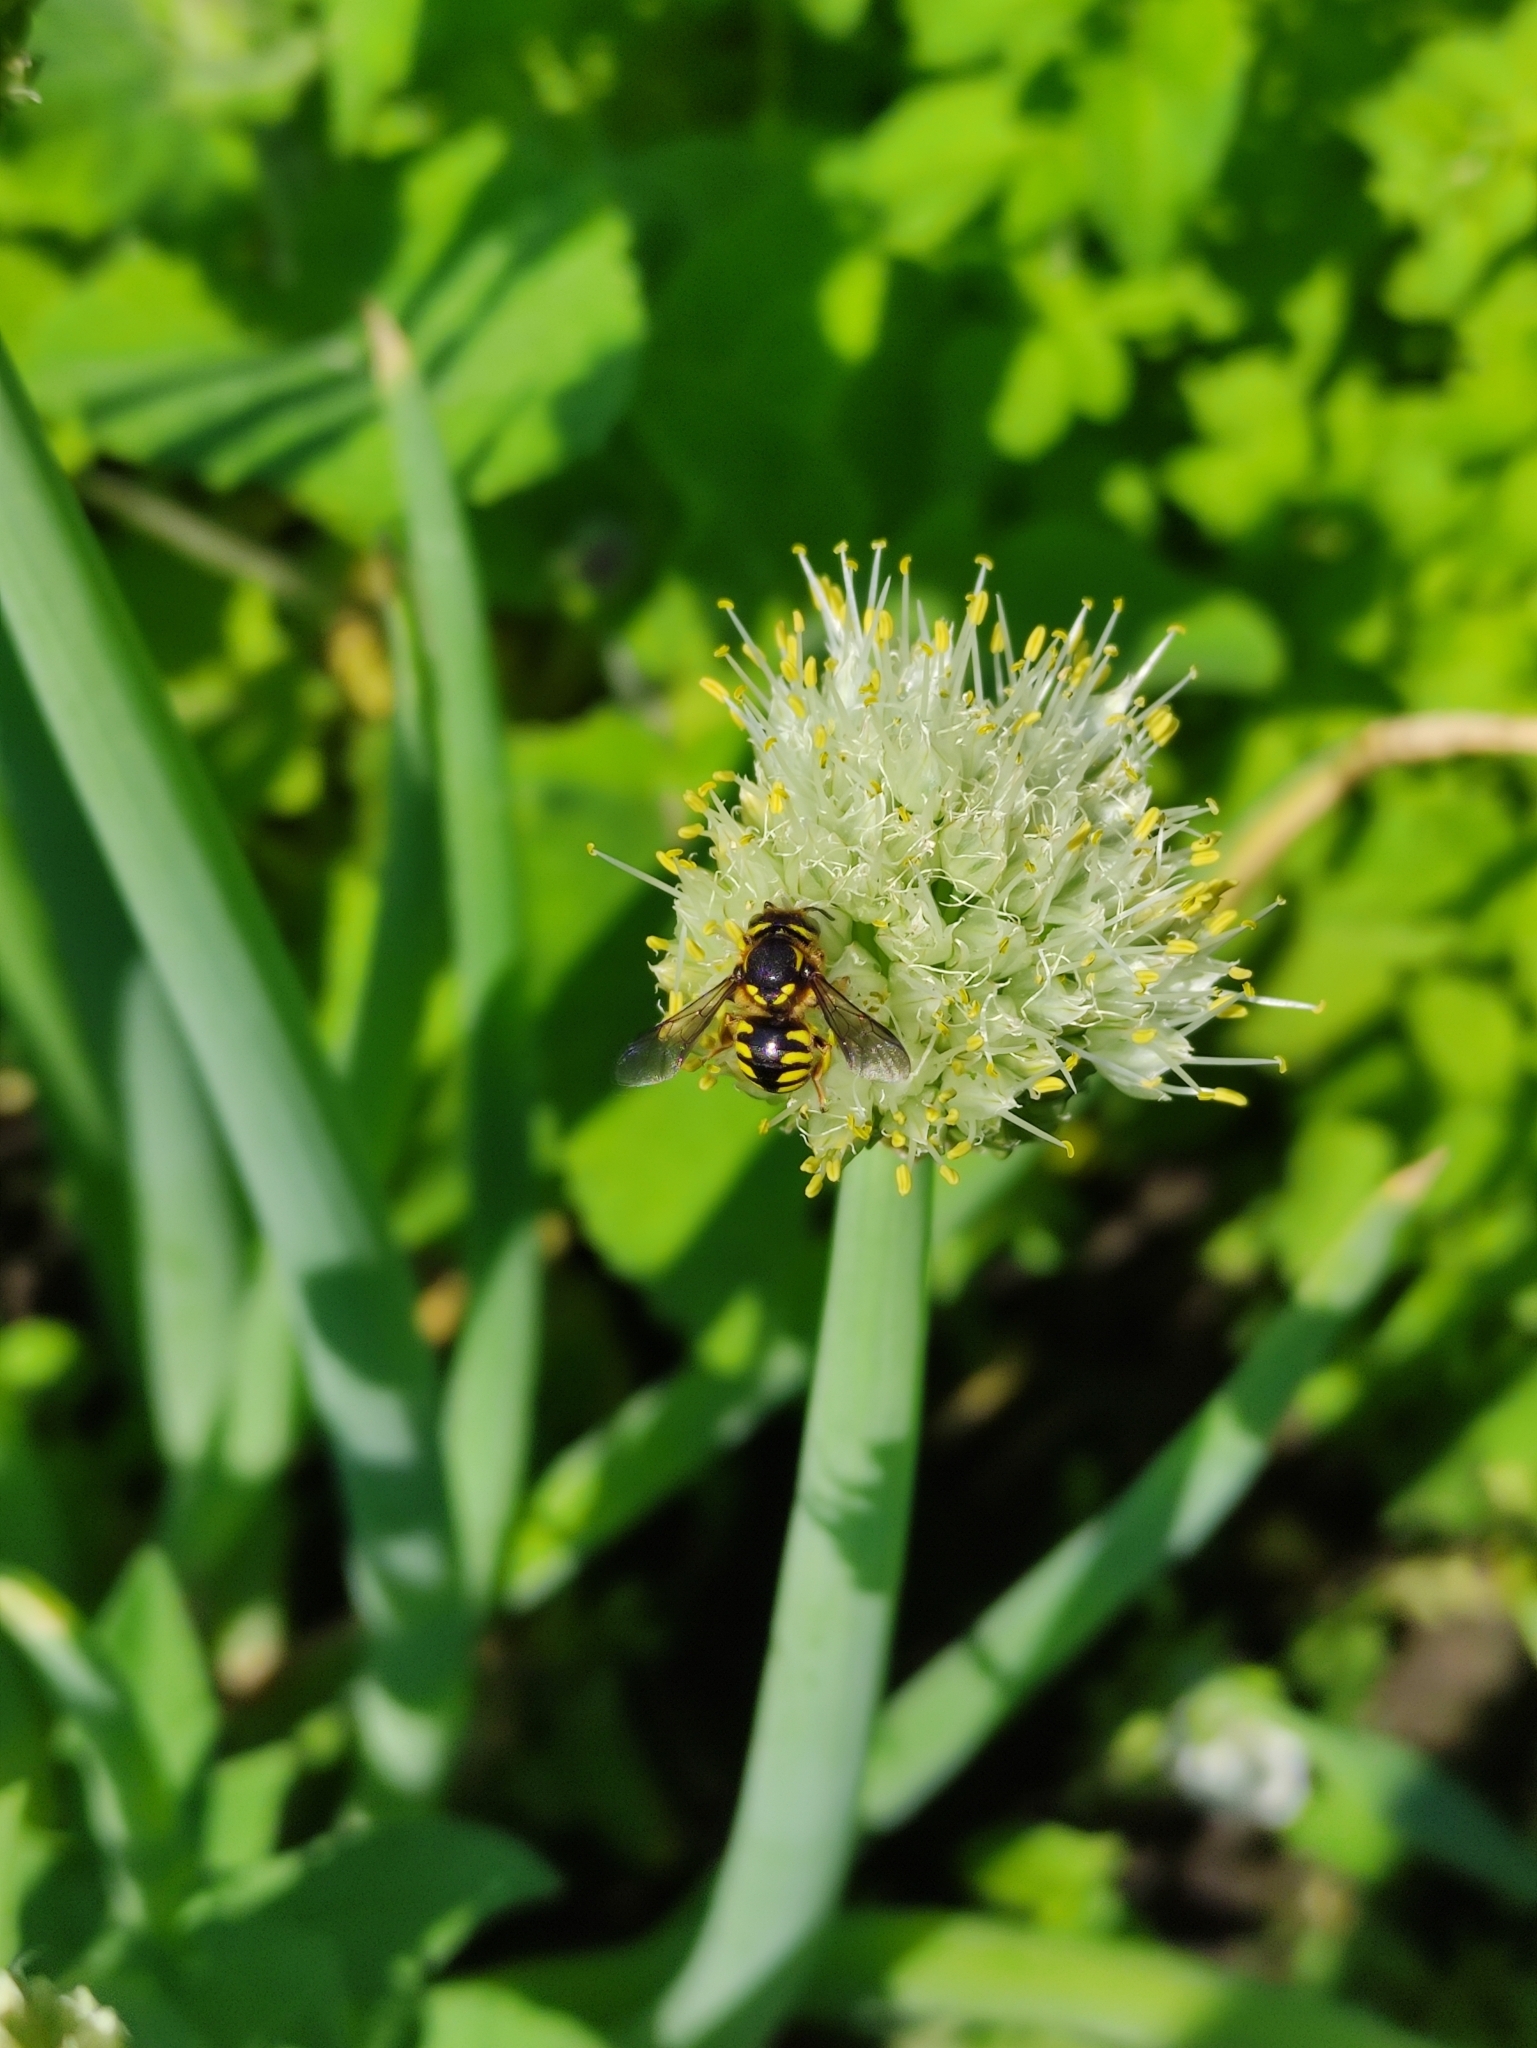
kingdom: Animalia
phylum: Arthropoda
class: Insecta
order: Hymenoptera
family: Megachilidae
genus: Anthidium
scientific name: Anthidium florentinum
